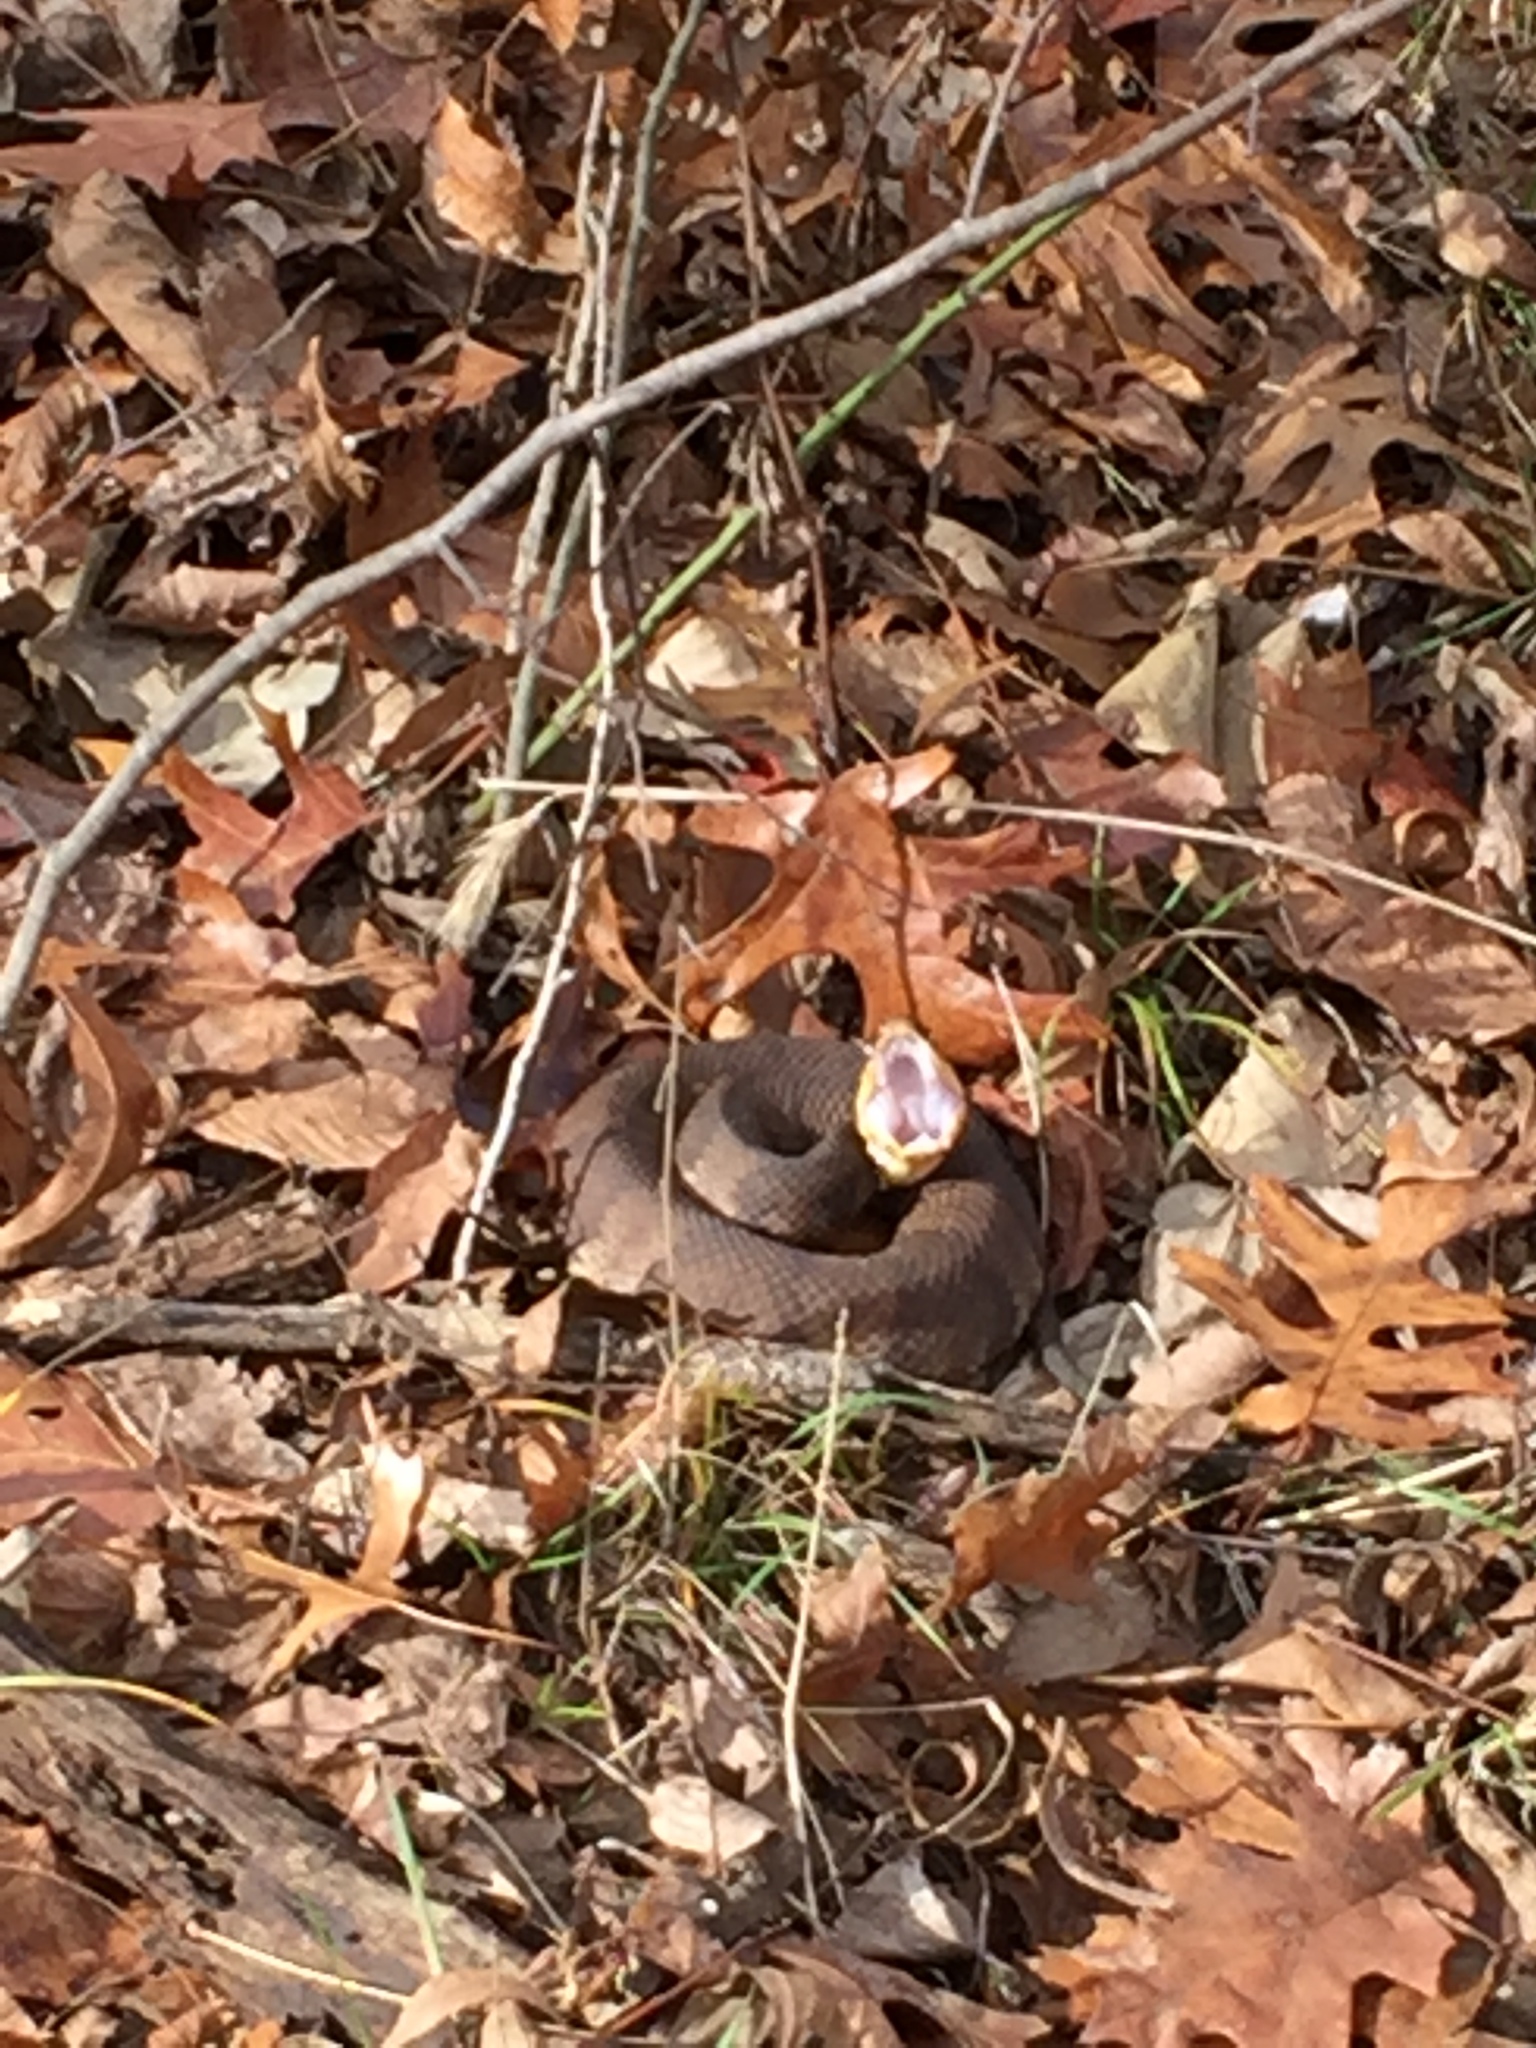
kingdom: Animalia
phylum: Chordata
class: Squamata
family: Viperidae
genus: Agkistrodon
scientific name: Agkistrodon piscivorus
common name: Cottonmouth
